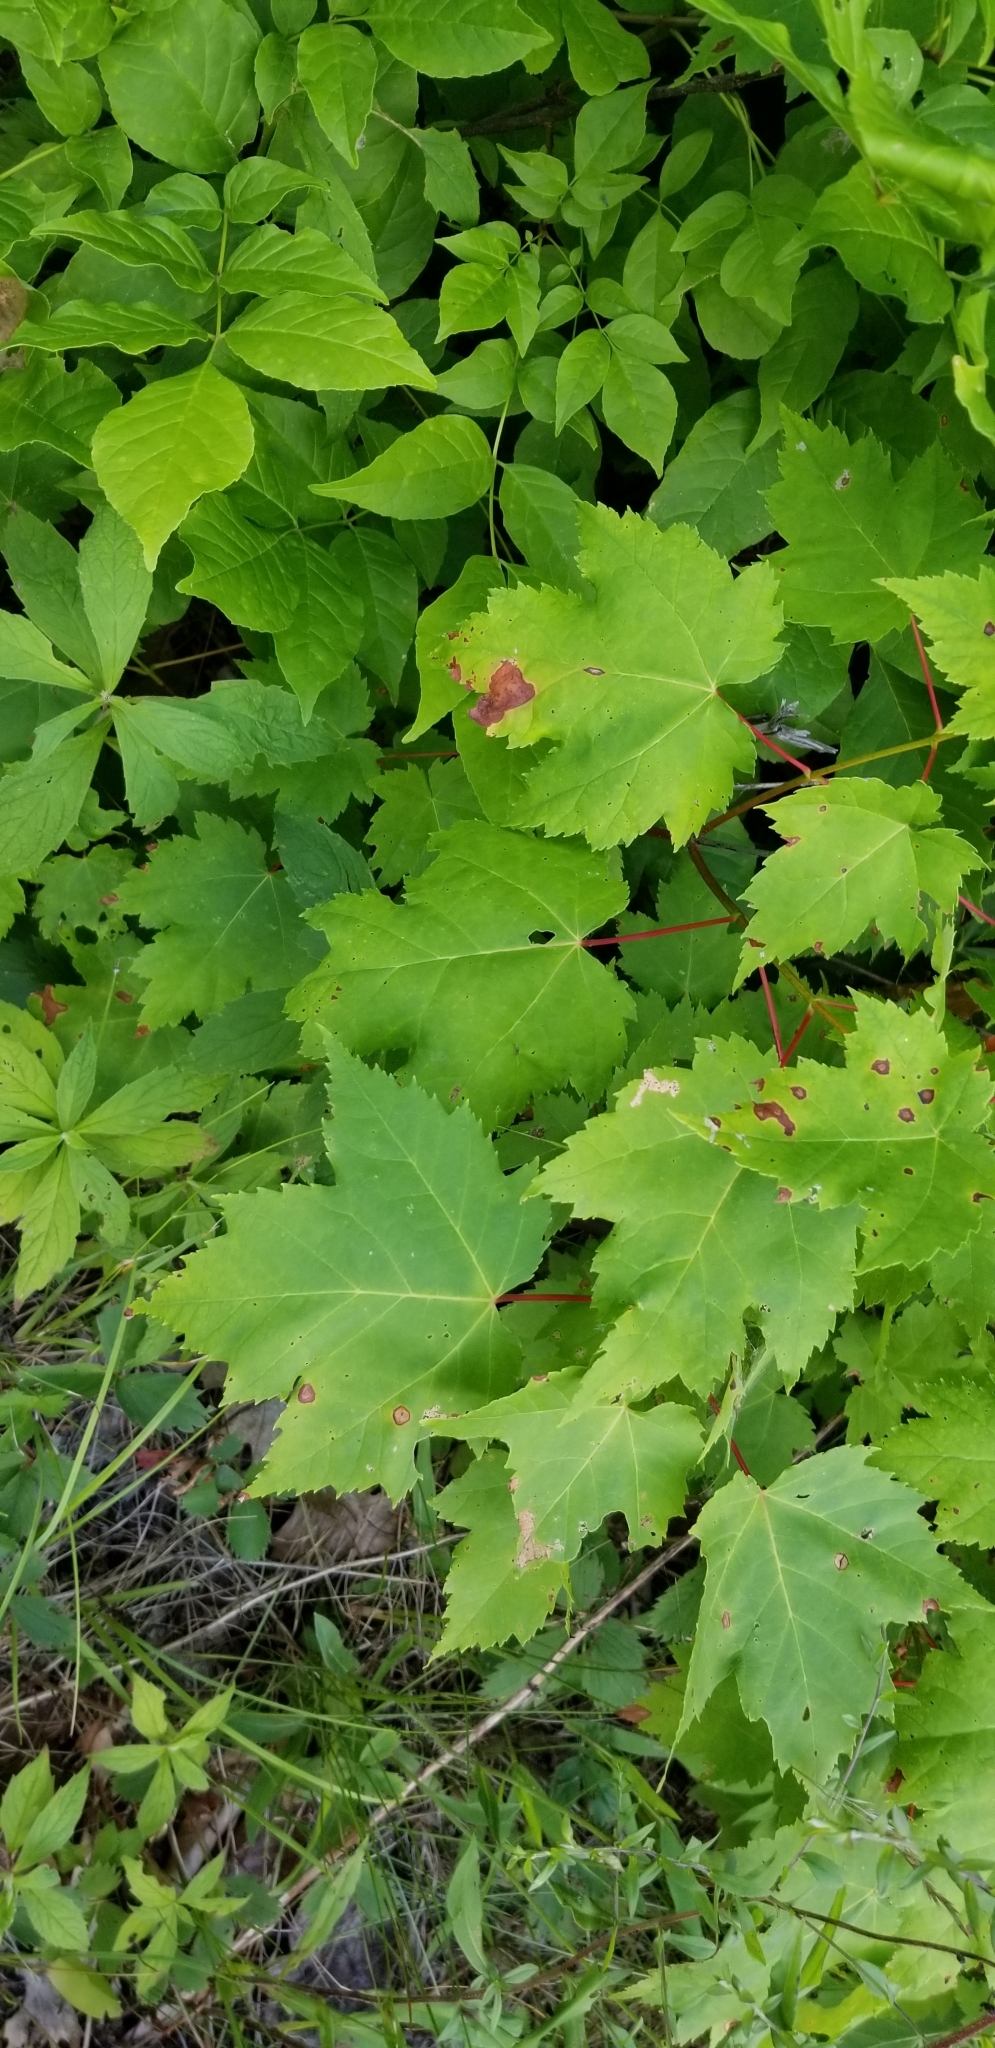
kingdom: Plantae
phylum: Tracheophyta
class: Magnoliopsida
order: Sapindales
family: Sapindaceae
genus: Acer
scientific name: Acer rubrum
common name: Red maple
